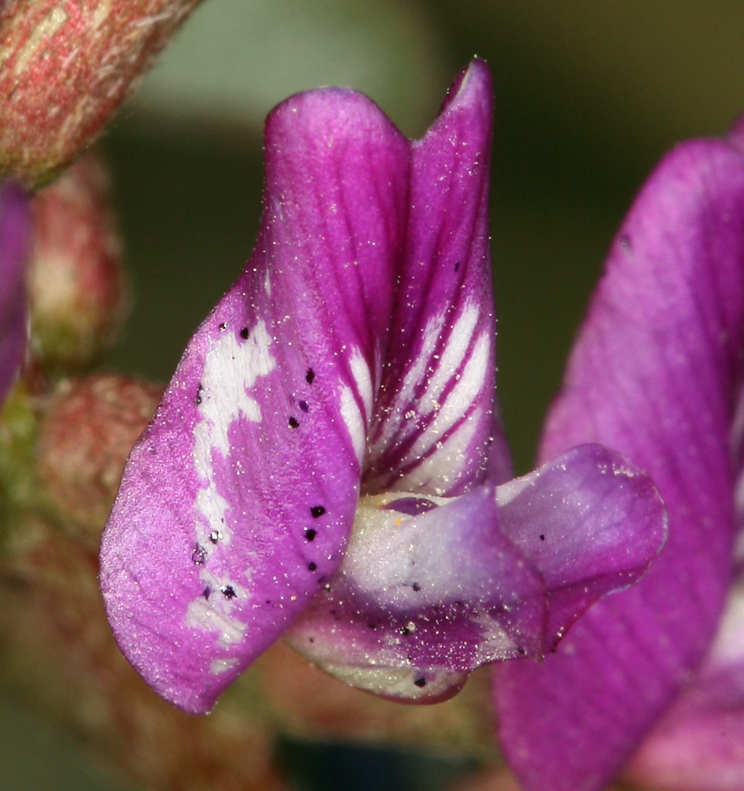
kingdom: Plantae
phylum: Tracheophyta
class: Magnoliopsida
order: Fabales
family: Fabaceae
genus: Astragalus
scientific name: Astragalus lentiginosus
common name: Freckled milkvetch
